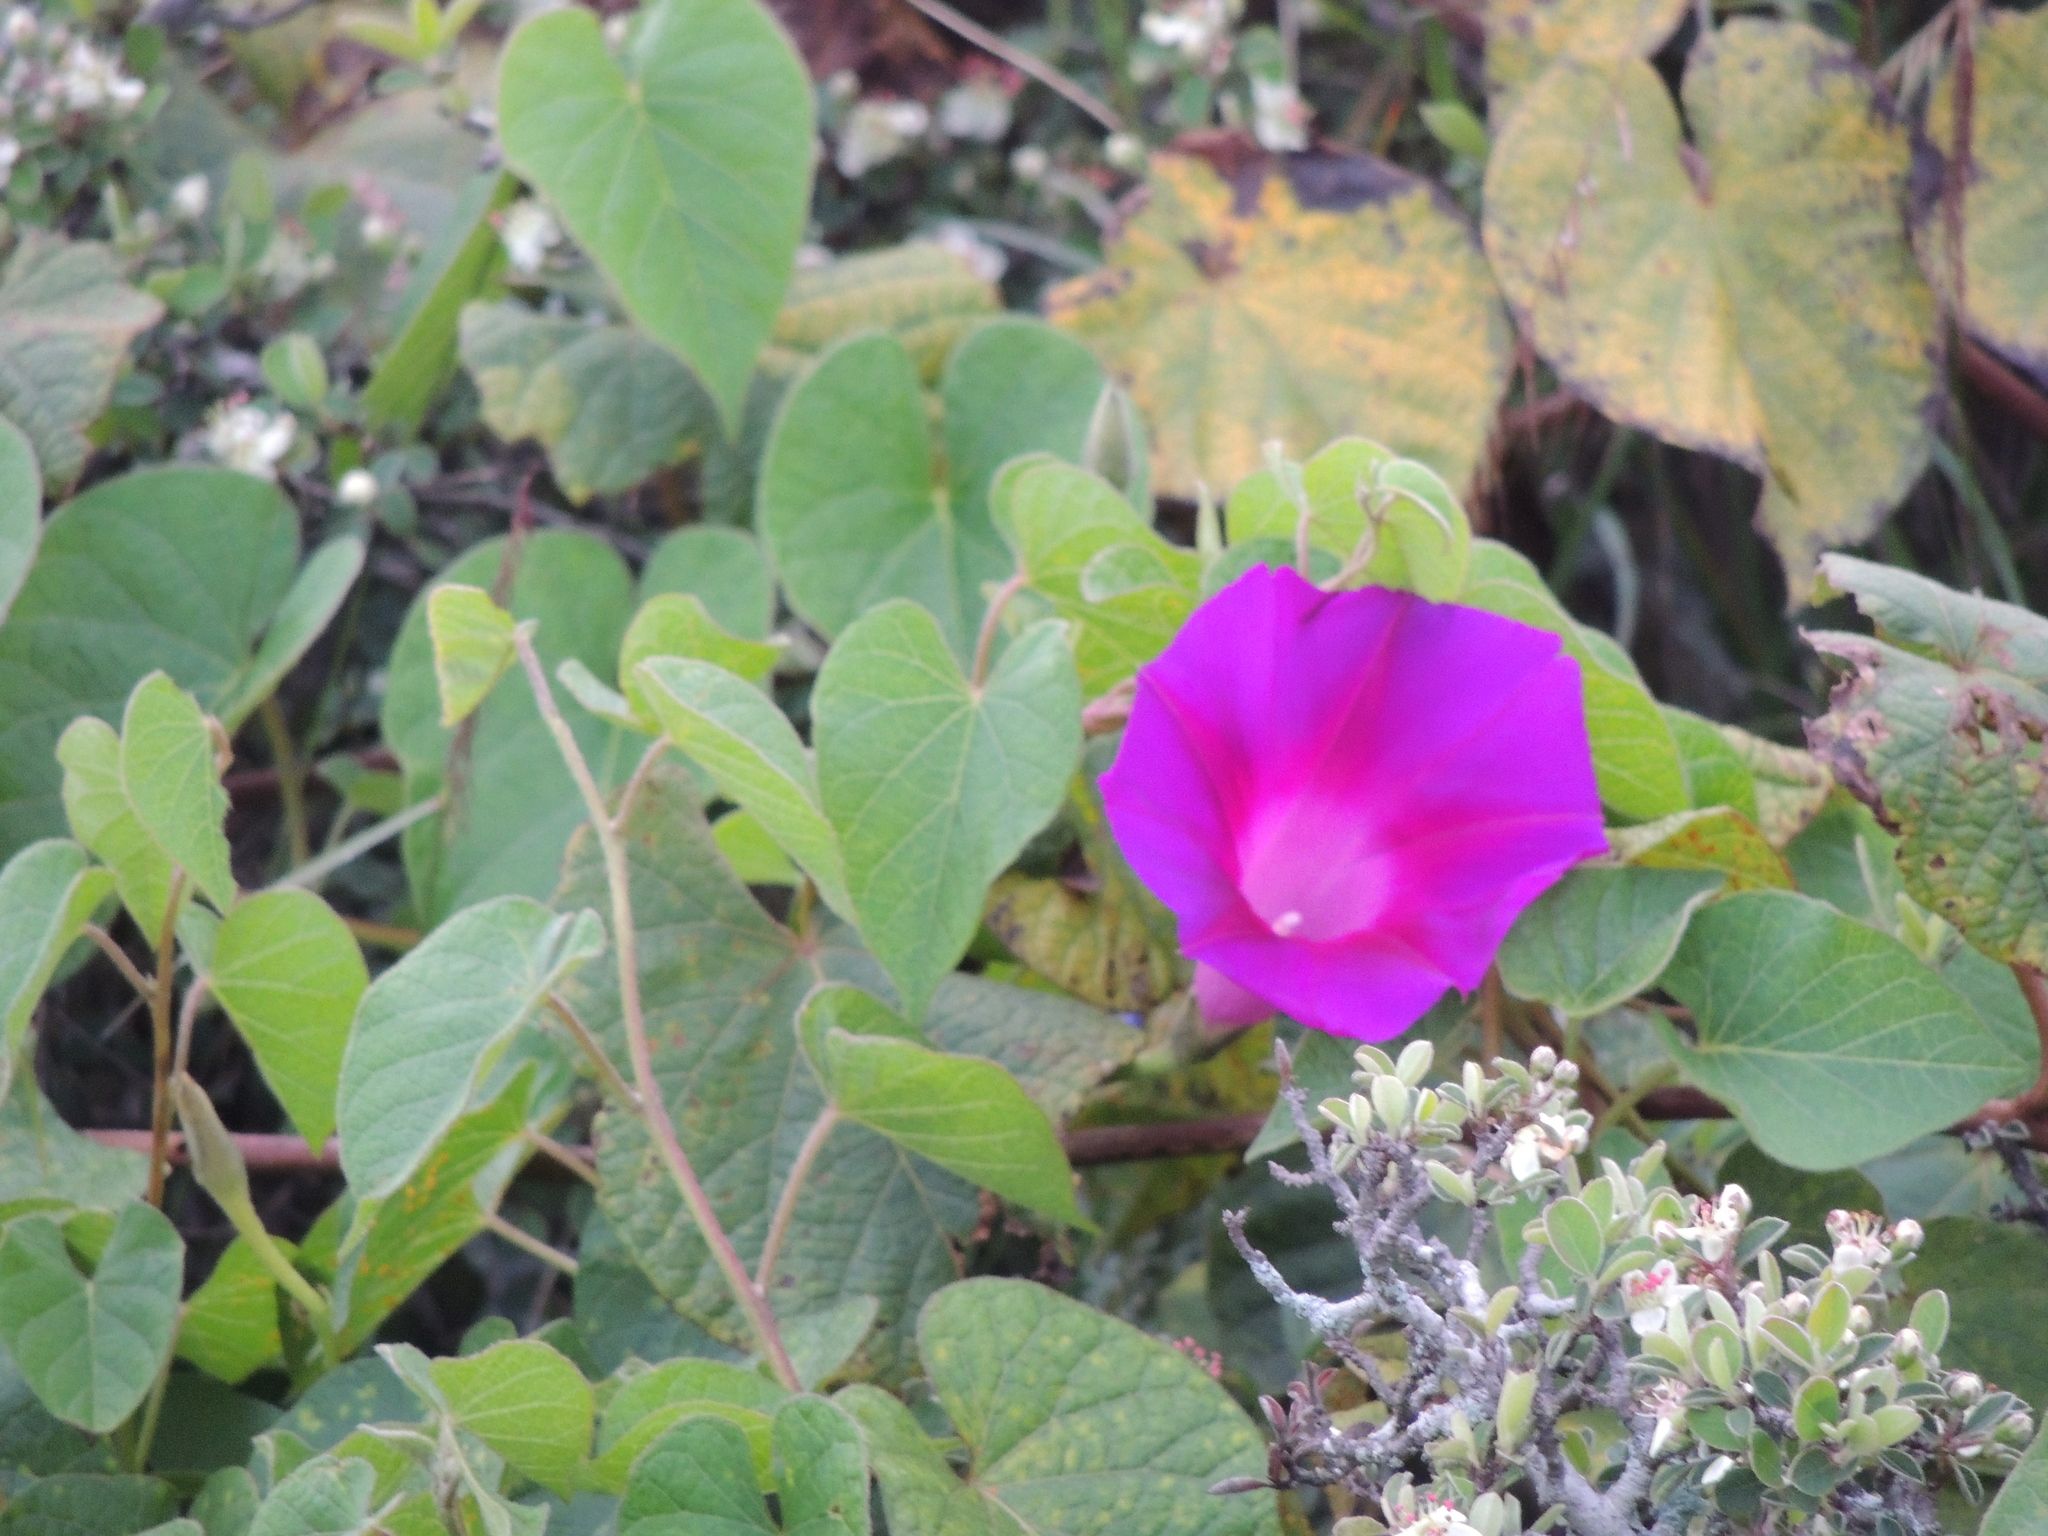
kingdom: Plantae
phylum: Tracheophyta
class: Magnoliopsida
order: Solanales
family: Convolvulaceae
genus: Ipomoea
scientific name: Ipomoea orizabensis
